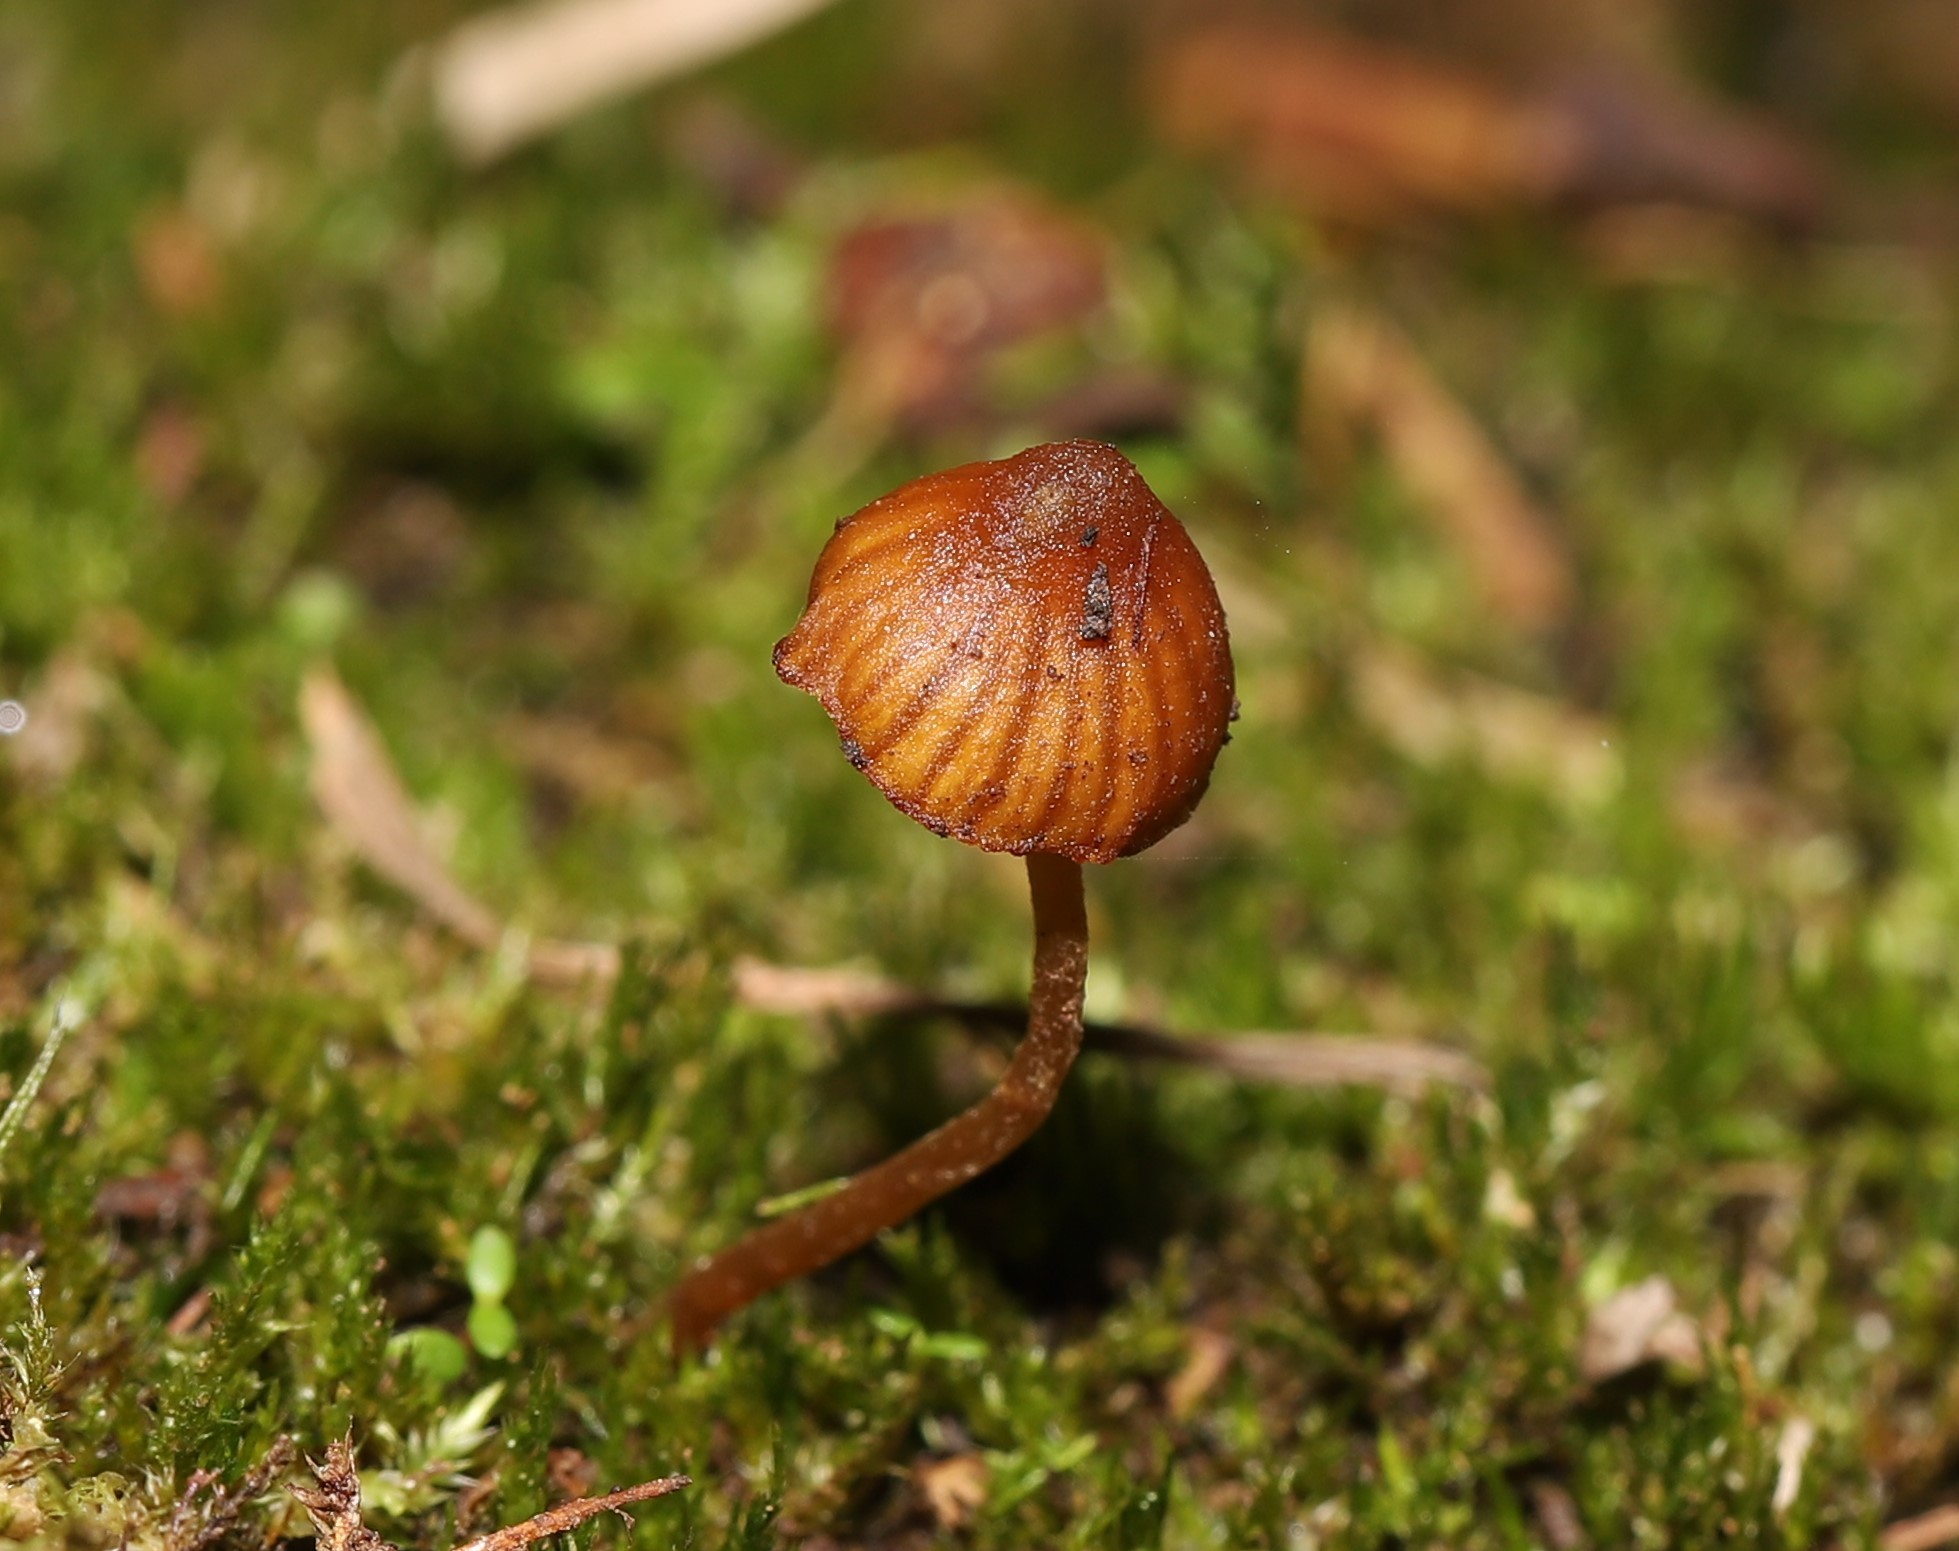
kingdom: Fungi
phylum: Basidiomycota
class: Agaricomycetes
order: Agaricales
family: Hymenogastraceae
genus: Galerina
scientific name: Galerina hypnorum
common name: Moss bell
